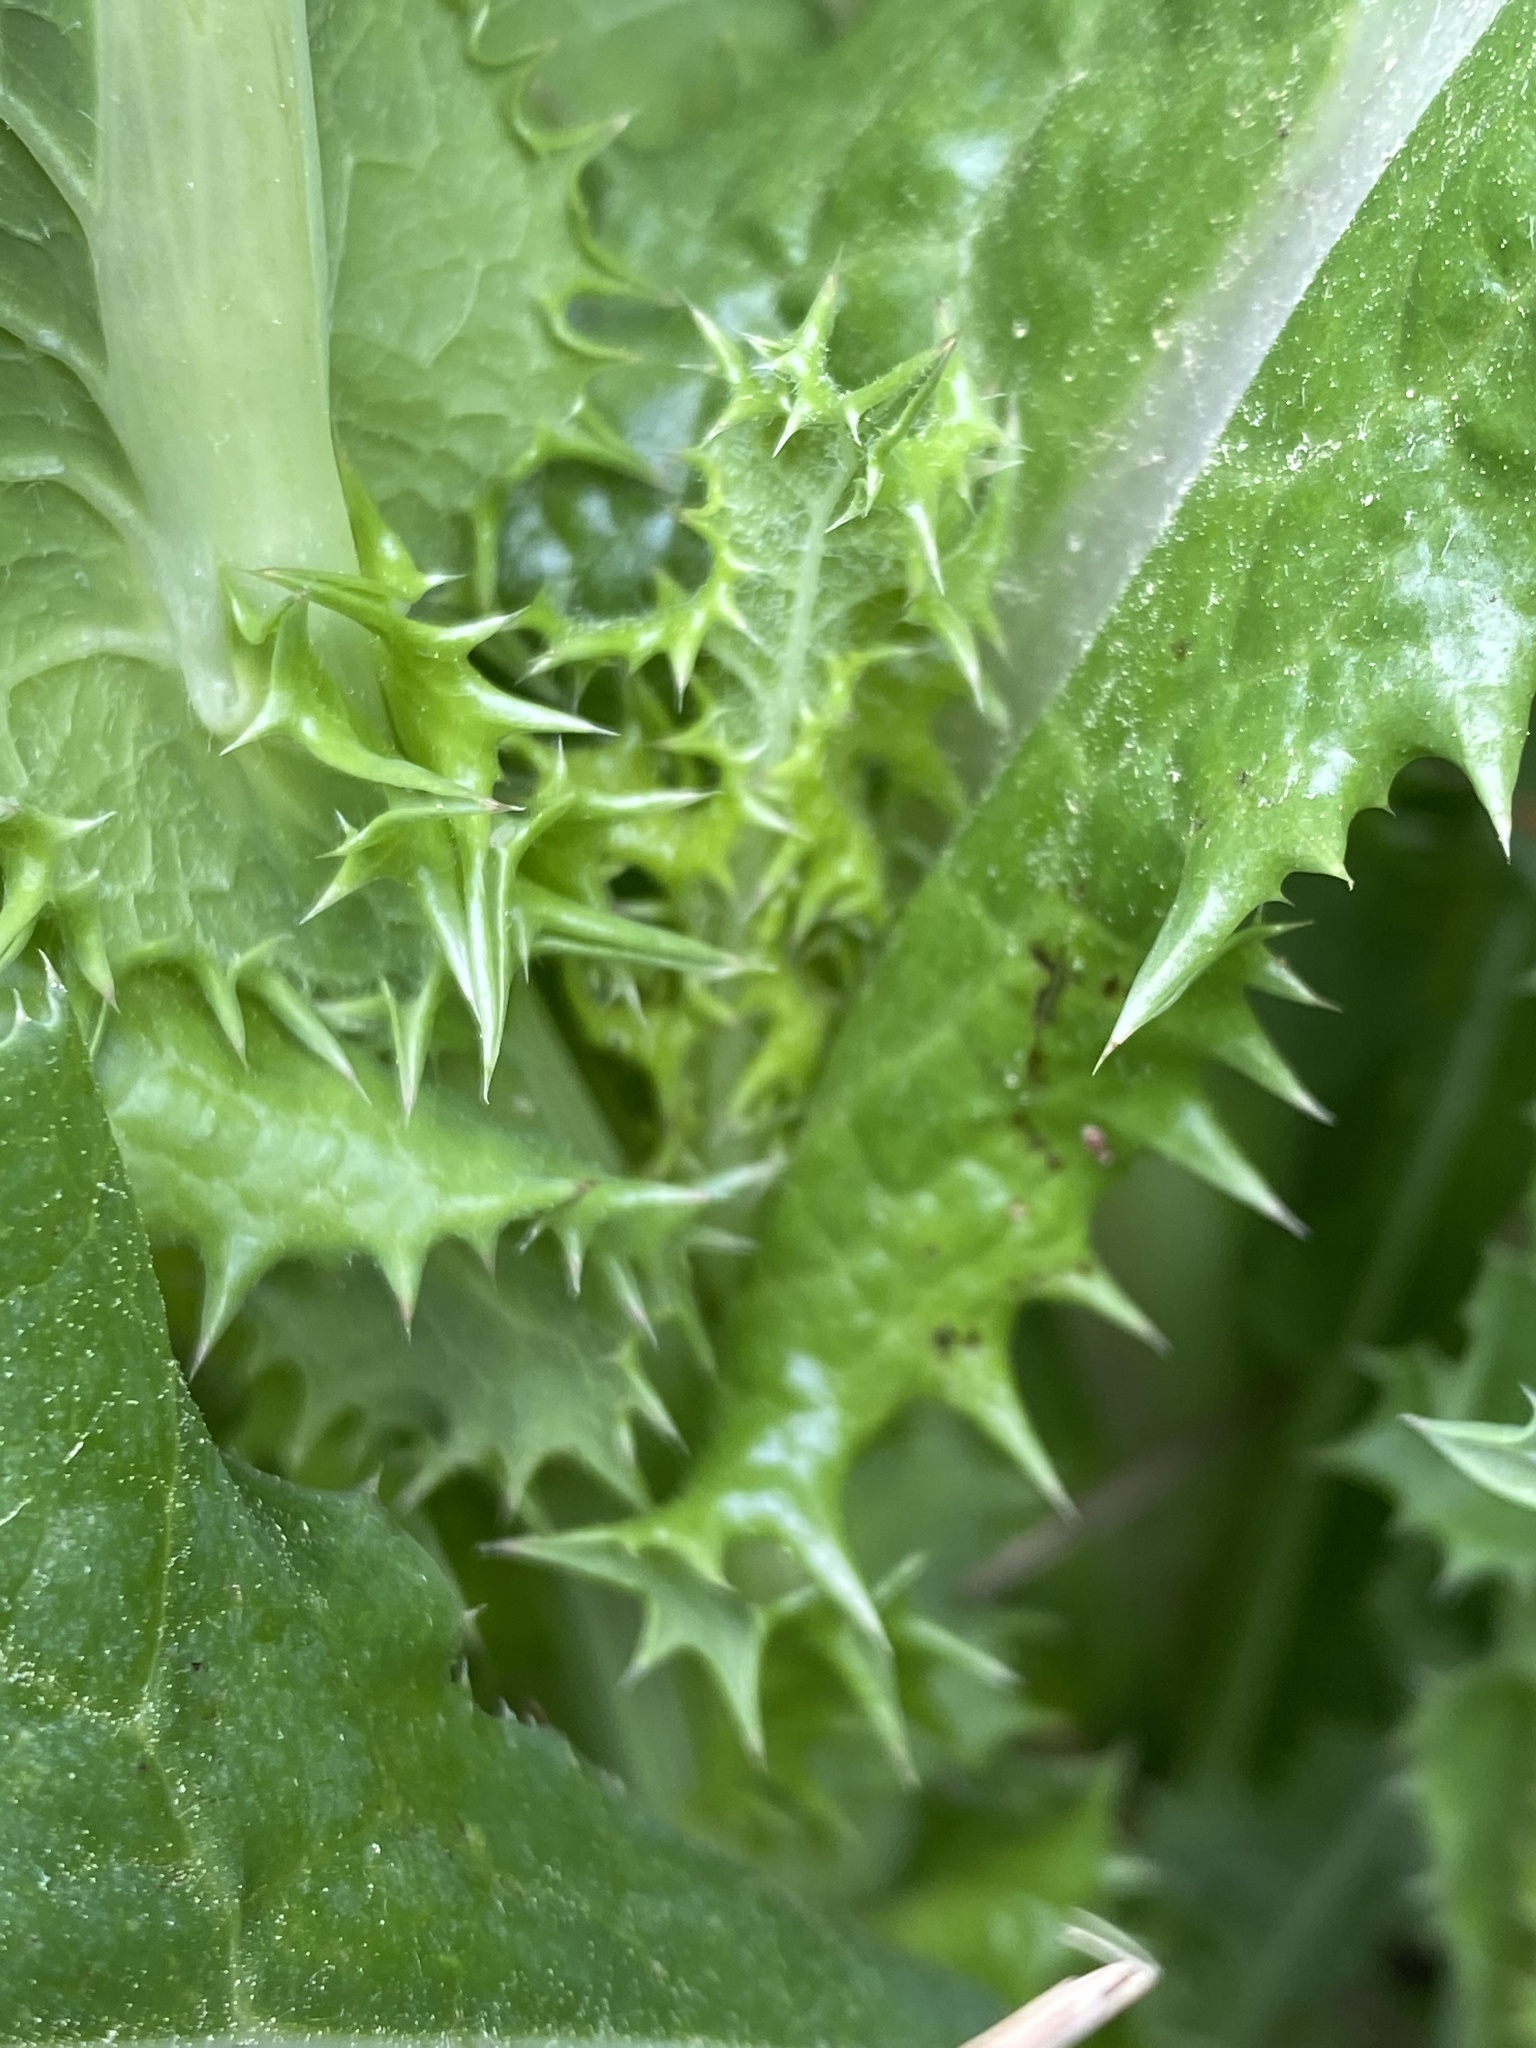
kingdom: Plantae
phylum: Tracheophyta
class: Magnoliopsida
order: Asterales
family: Asteraceae
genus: Sonchus
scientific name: Sonchus asper
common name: Prickly sow-thistle
